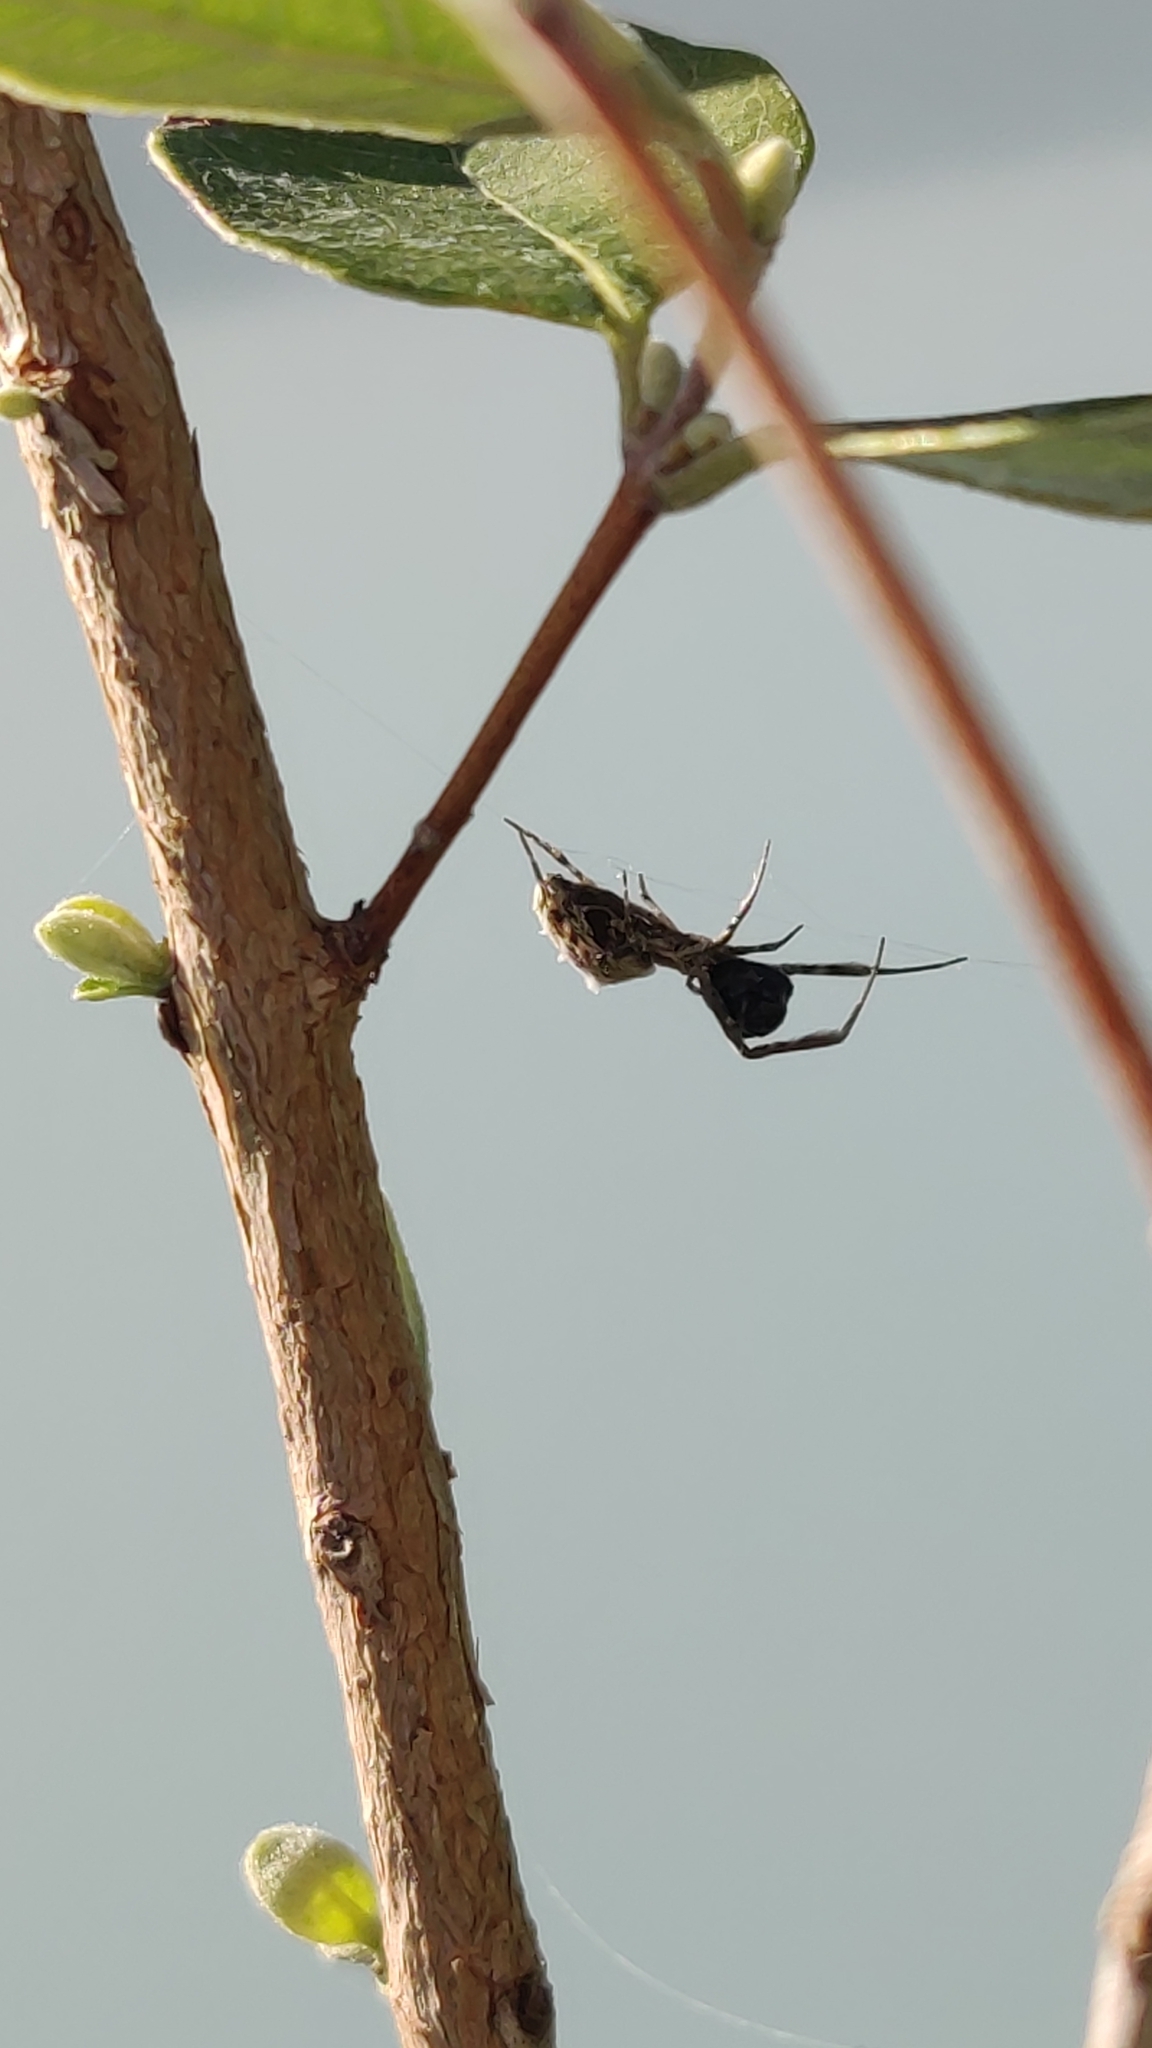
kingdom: Animalia
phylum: Arthropoda
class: Arachnida
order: Araneae
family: Uloboridae
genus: Uloborus
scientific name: Uloborus walckenaerius
